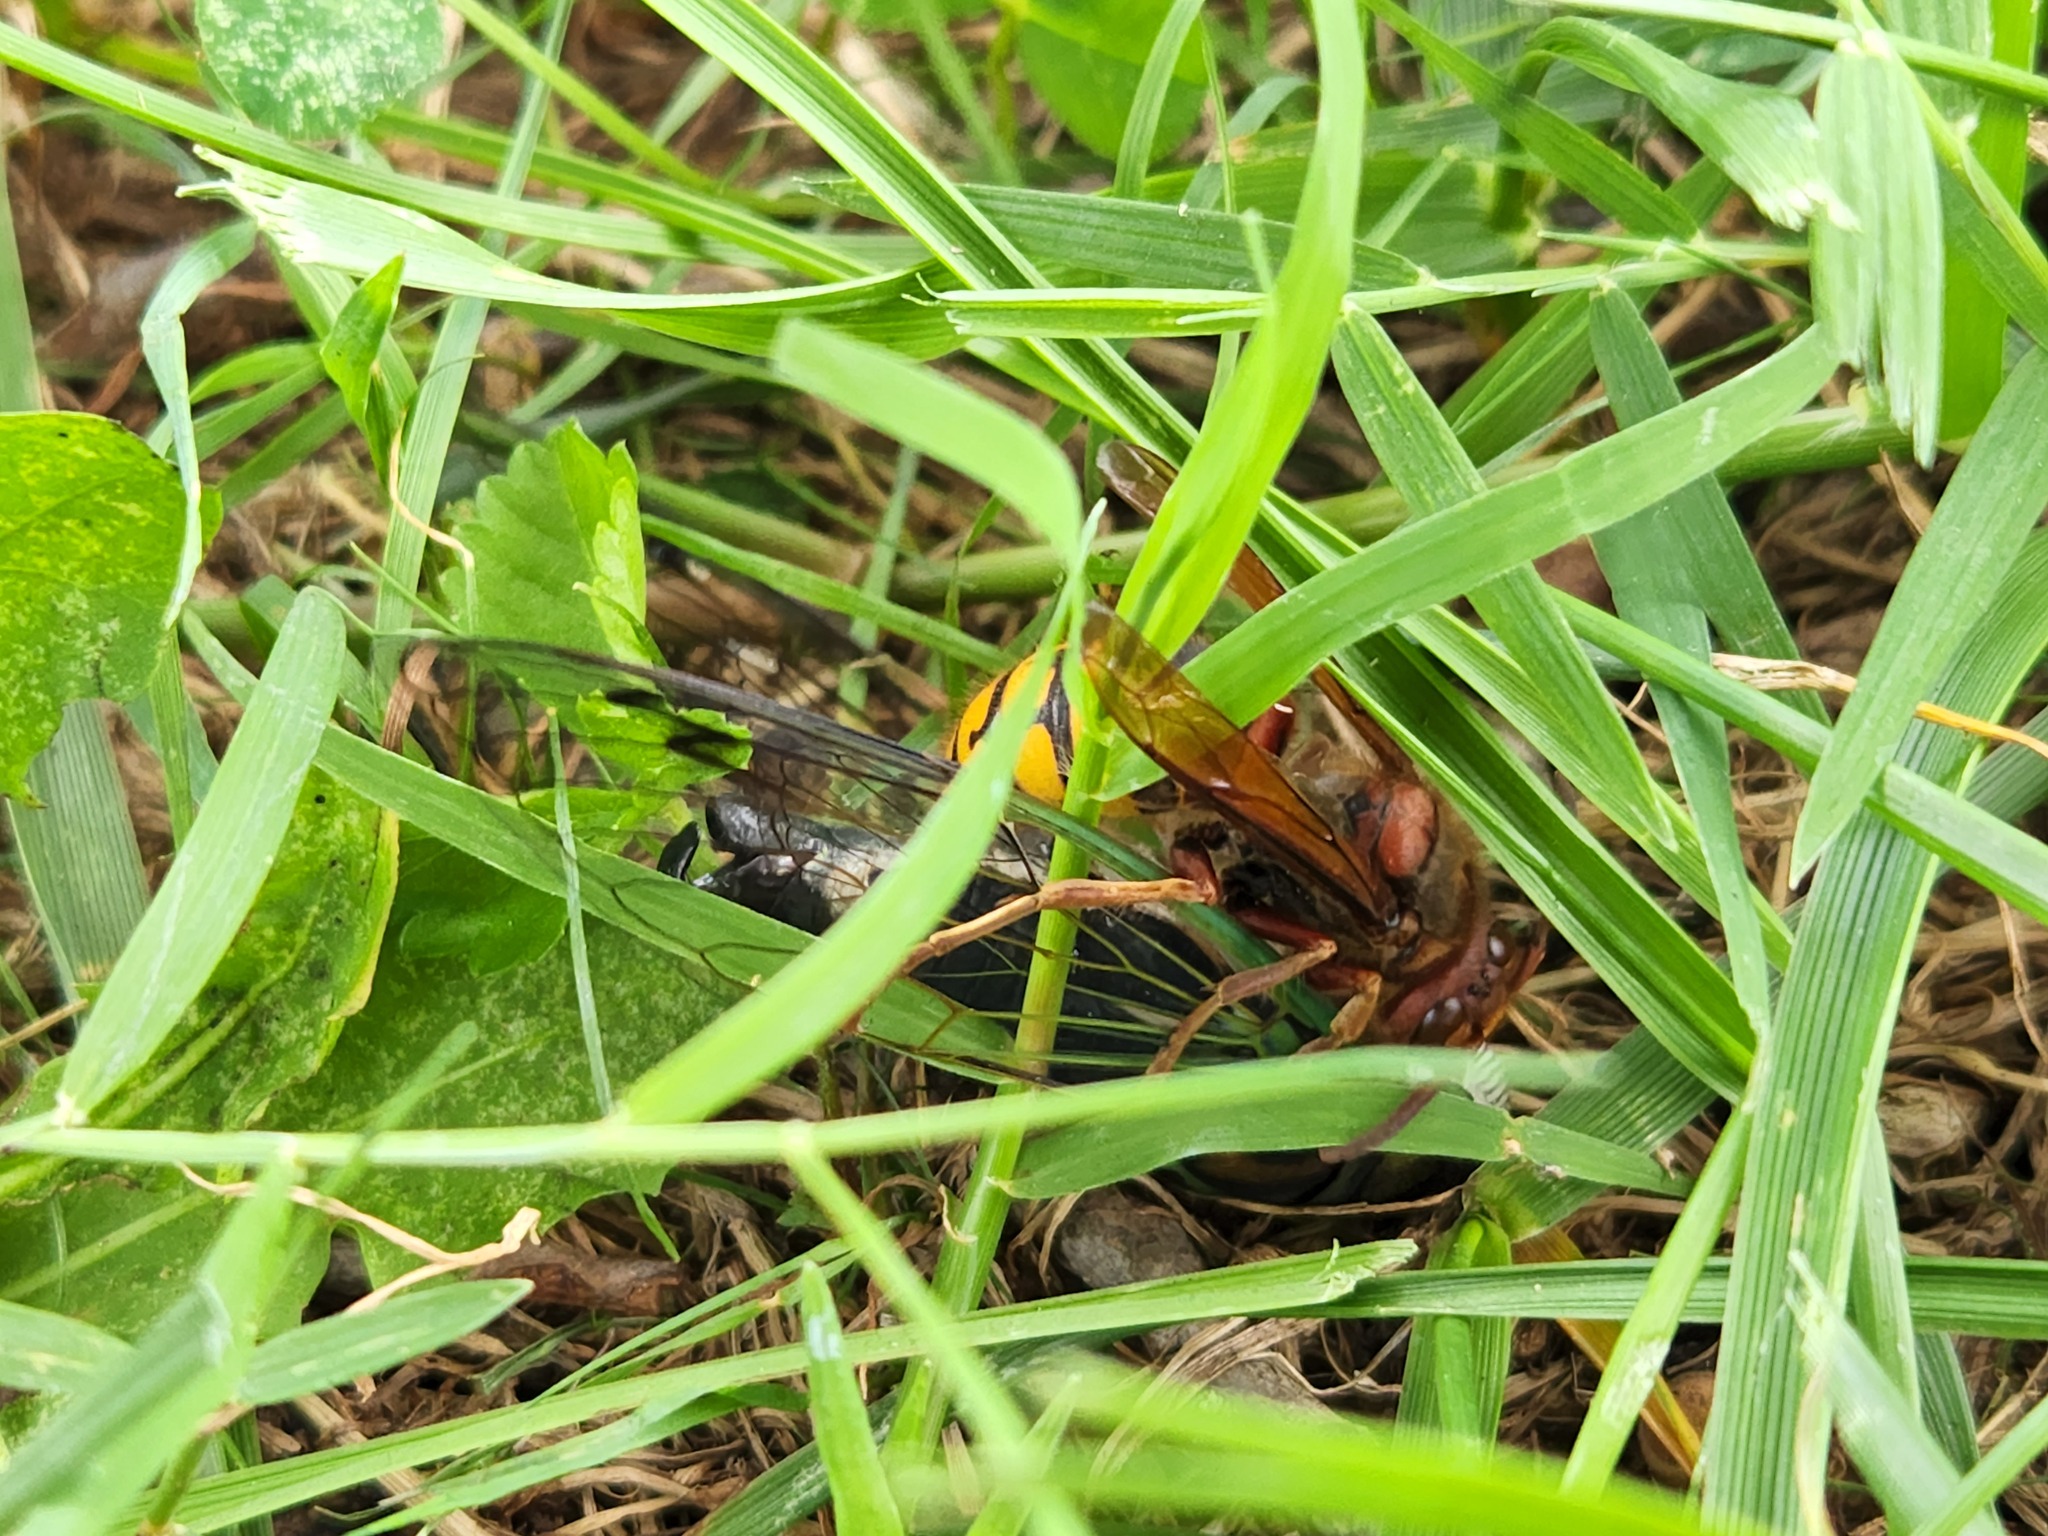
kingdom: Animalia
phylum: Arthropoda
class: Insecta
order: Hymenoptera
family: Vespidae
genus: Vespa
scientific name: Vespa crabro
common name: Hornet
